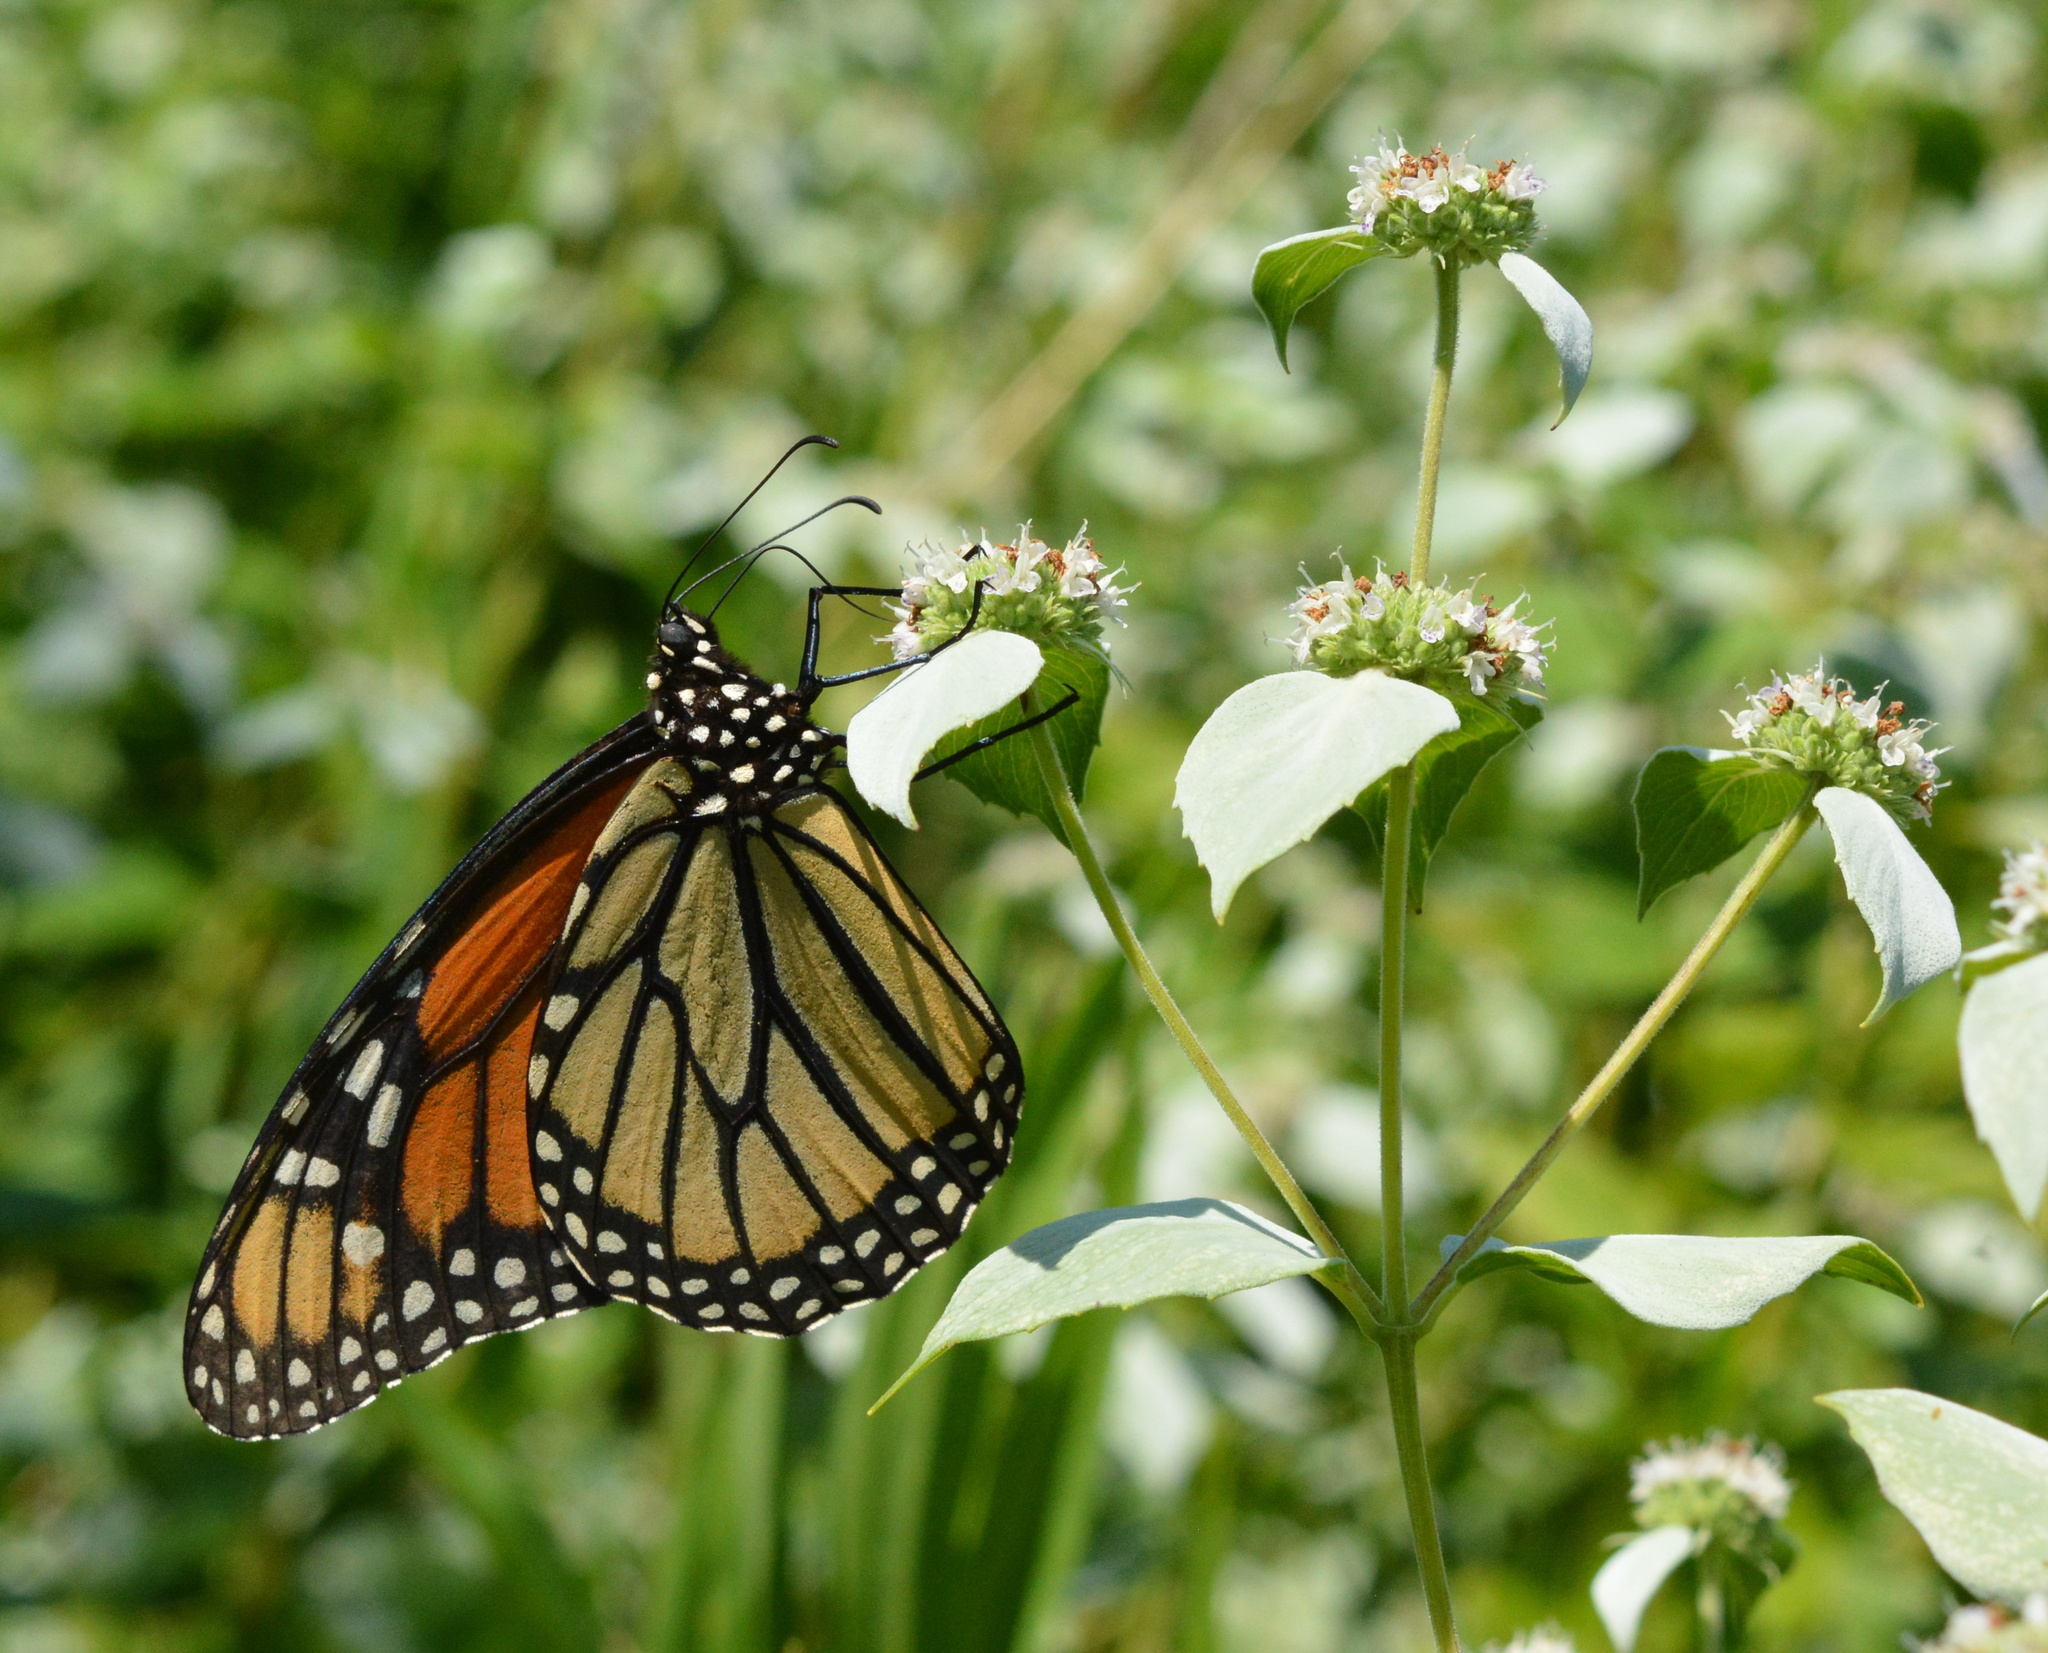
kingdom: Animalia
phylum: Arthropoda
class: Insecta
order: Lepidoptera
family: Nymphalidae
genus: Danaus
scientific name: Danaus plexippus
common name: Monarch
